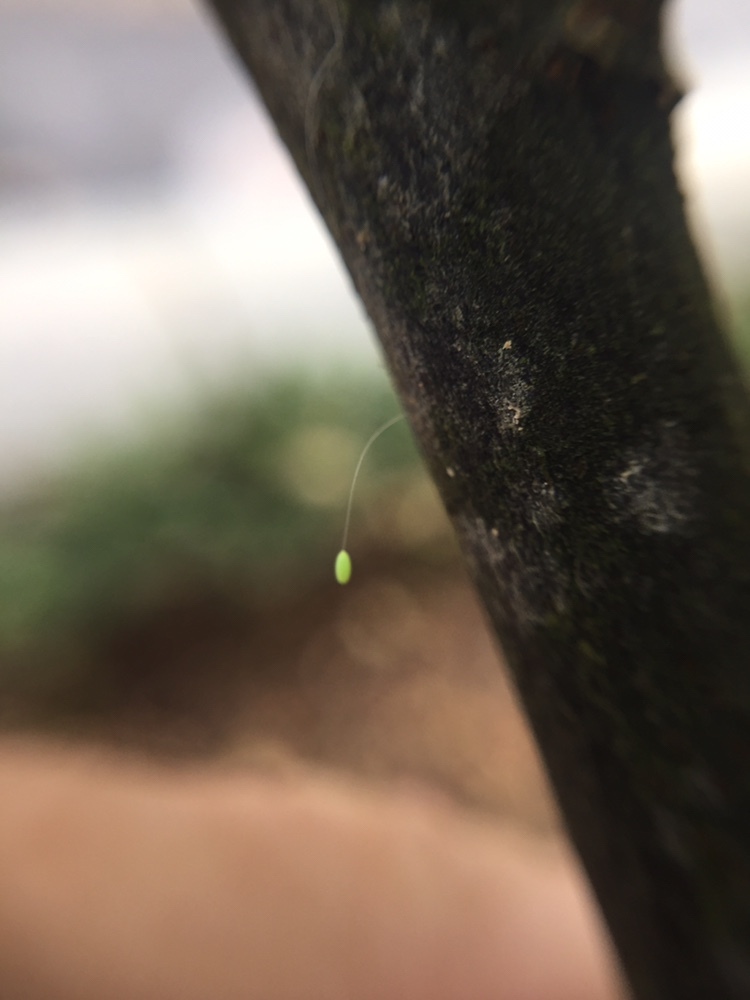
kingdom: Animalia
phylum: Arthropoda
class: Insecta
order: Neuroptera
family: Chrysopidae
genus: Mallada
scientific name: Mallada basalis
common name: Green lacewing
